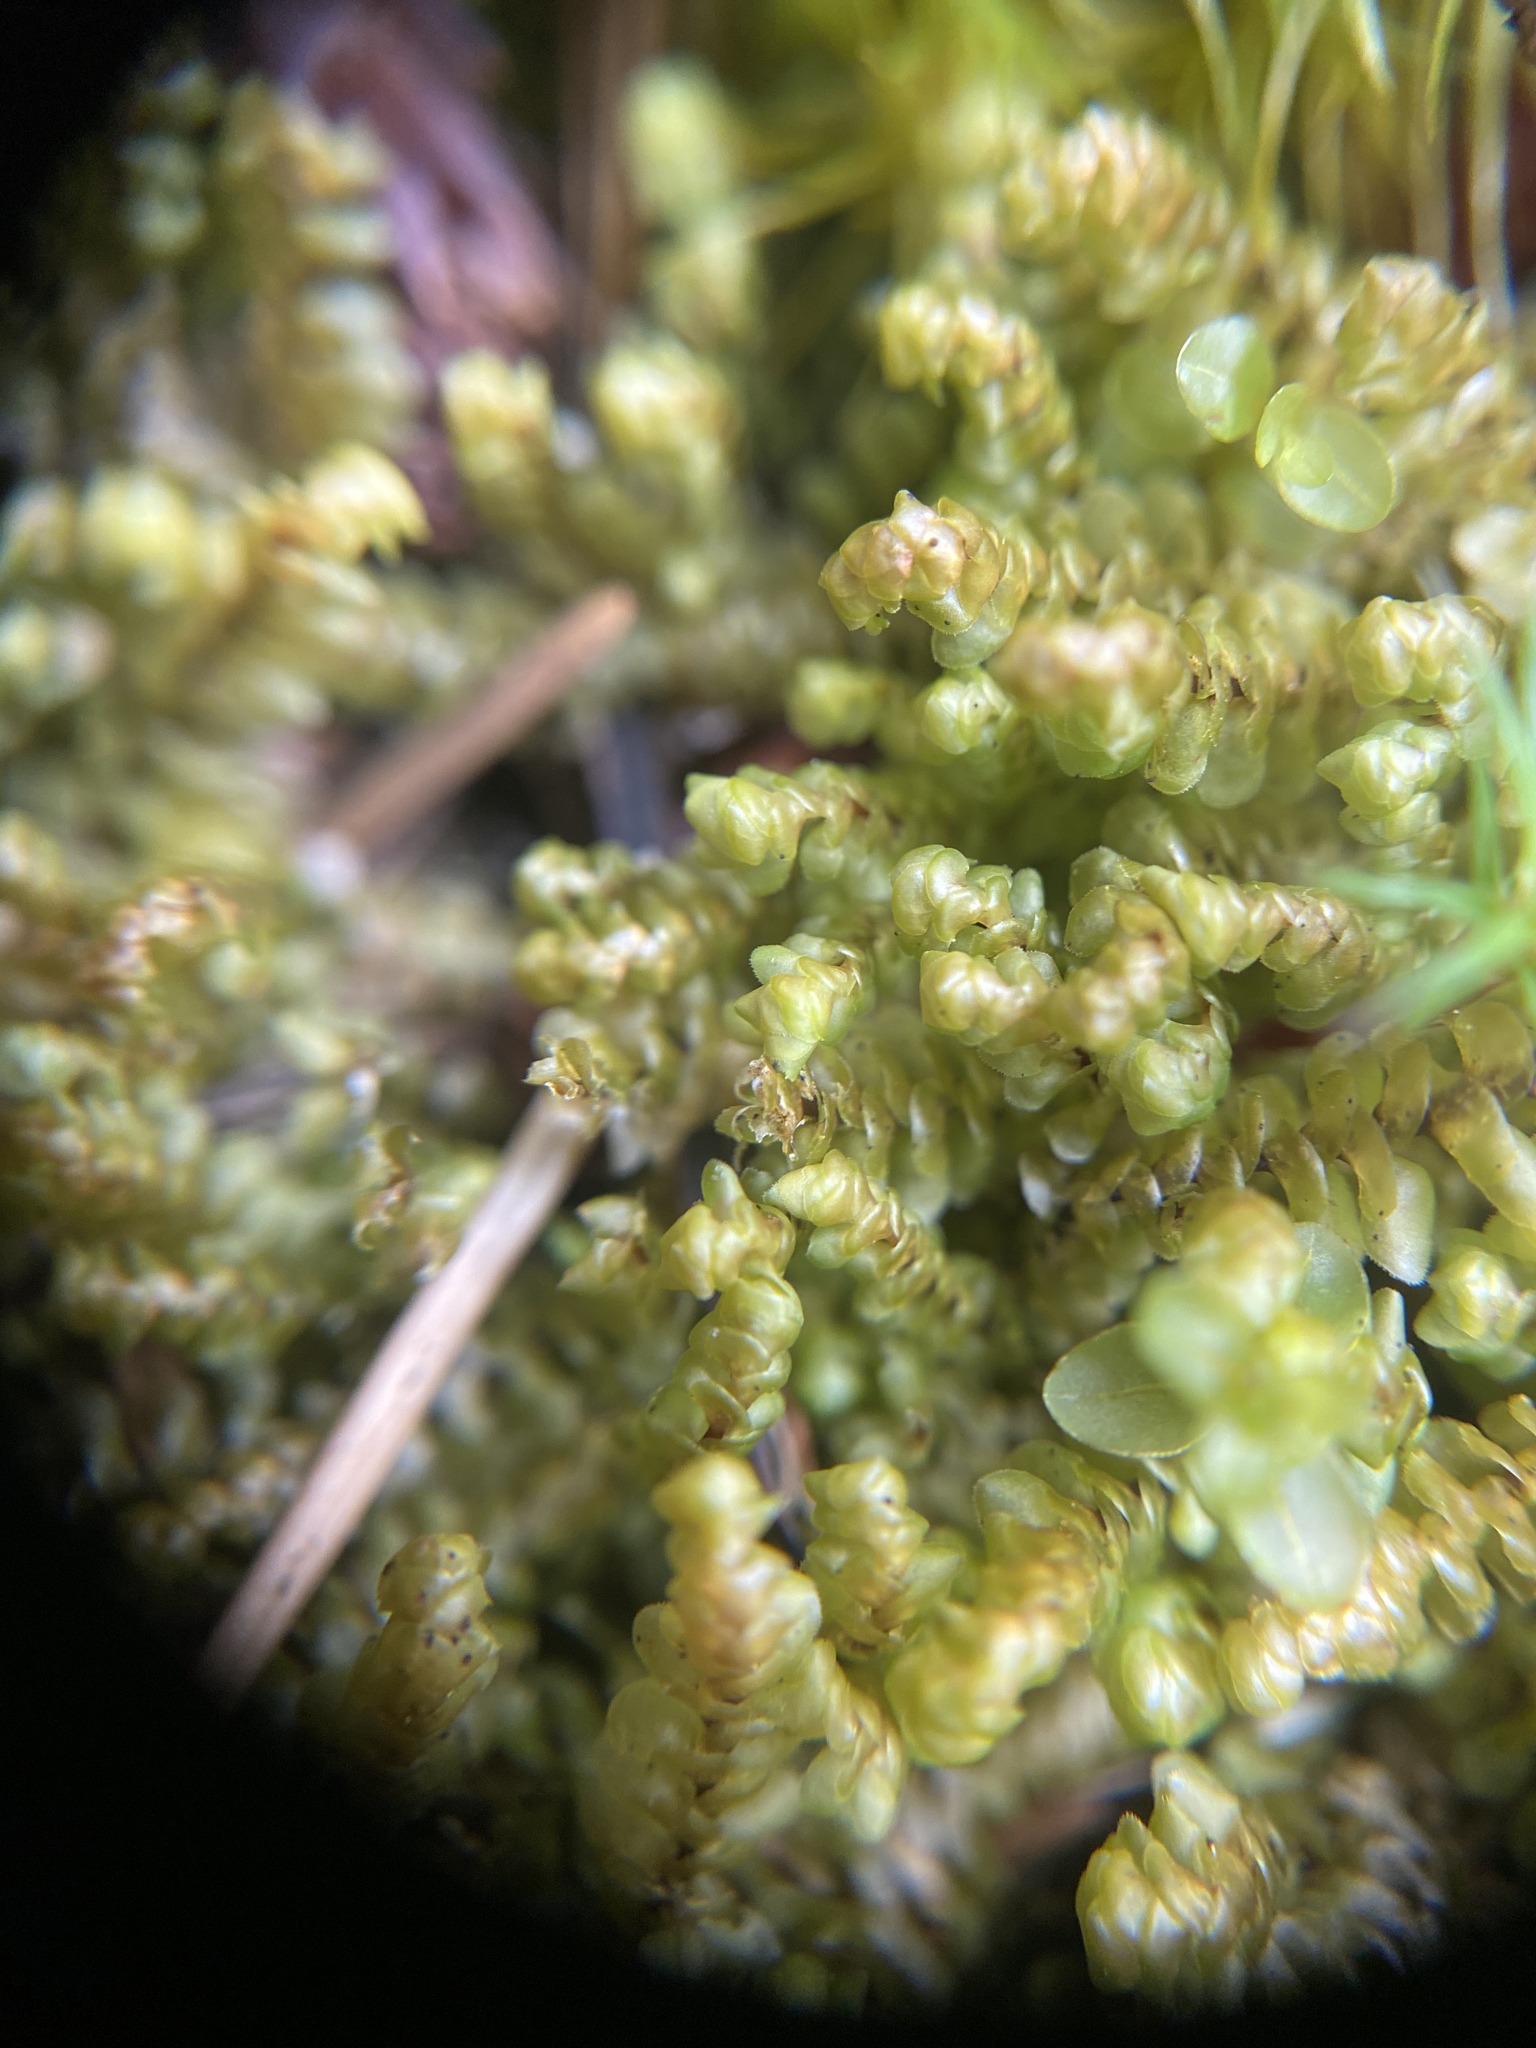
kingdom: Plantae
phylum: Marchantiophyta
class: Jungermanniopsida
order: Jungermanniales
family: Scapaniaceae
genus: Scapania
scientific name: Scapania bolanderi
